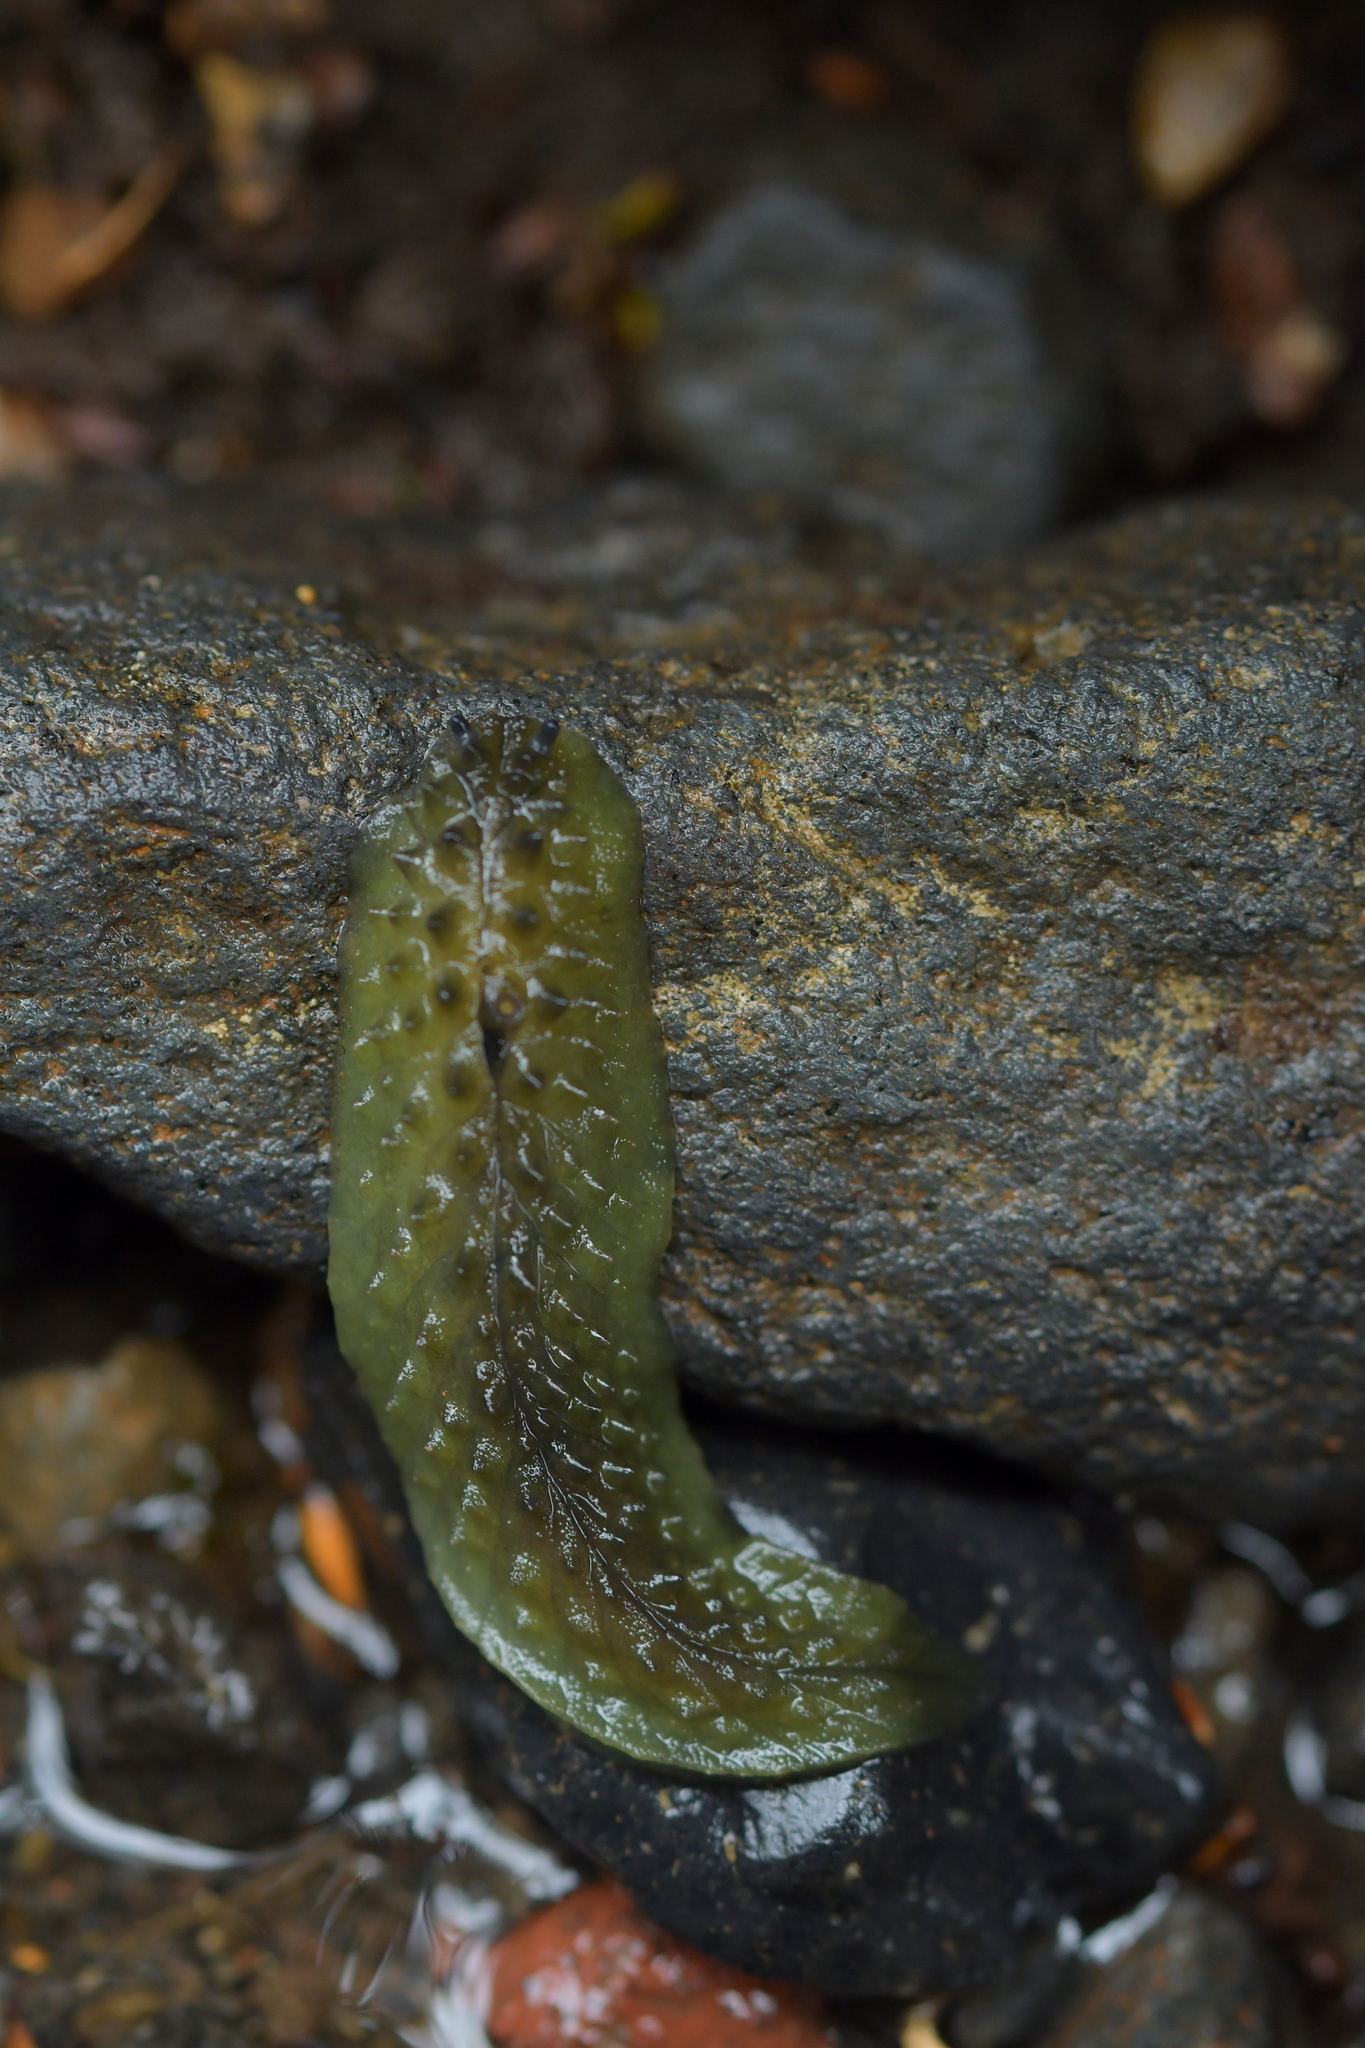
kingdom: Animalia
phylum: Mollusca
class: Gastropoda
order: Stylommatophora
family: Athoracophoridae
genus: Athoracophorus
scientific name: Athoracophorus papillatus
